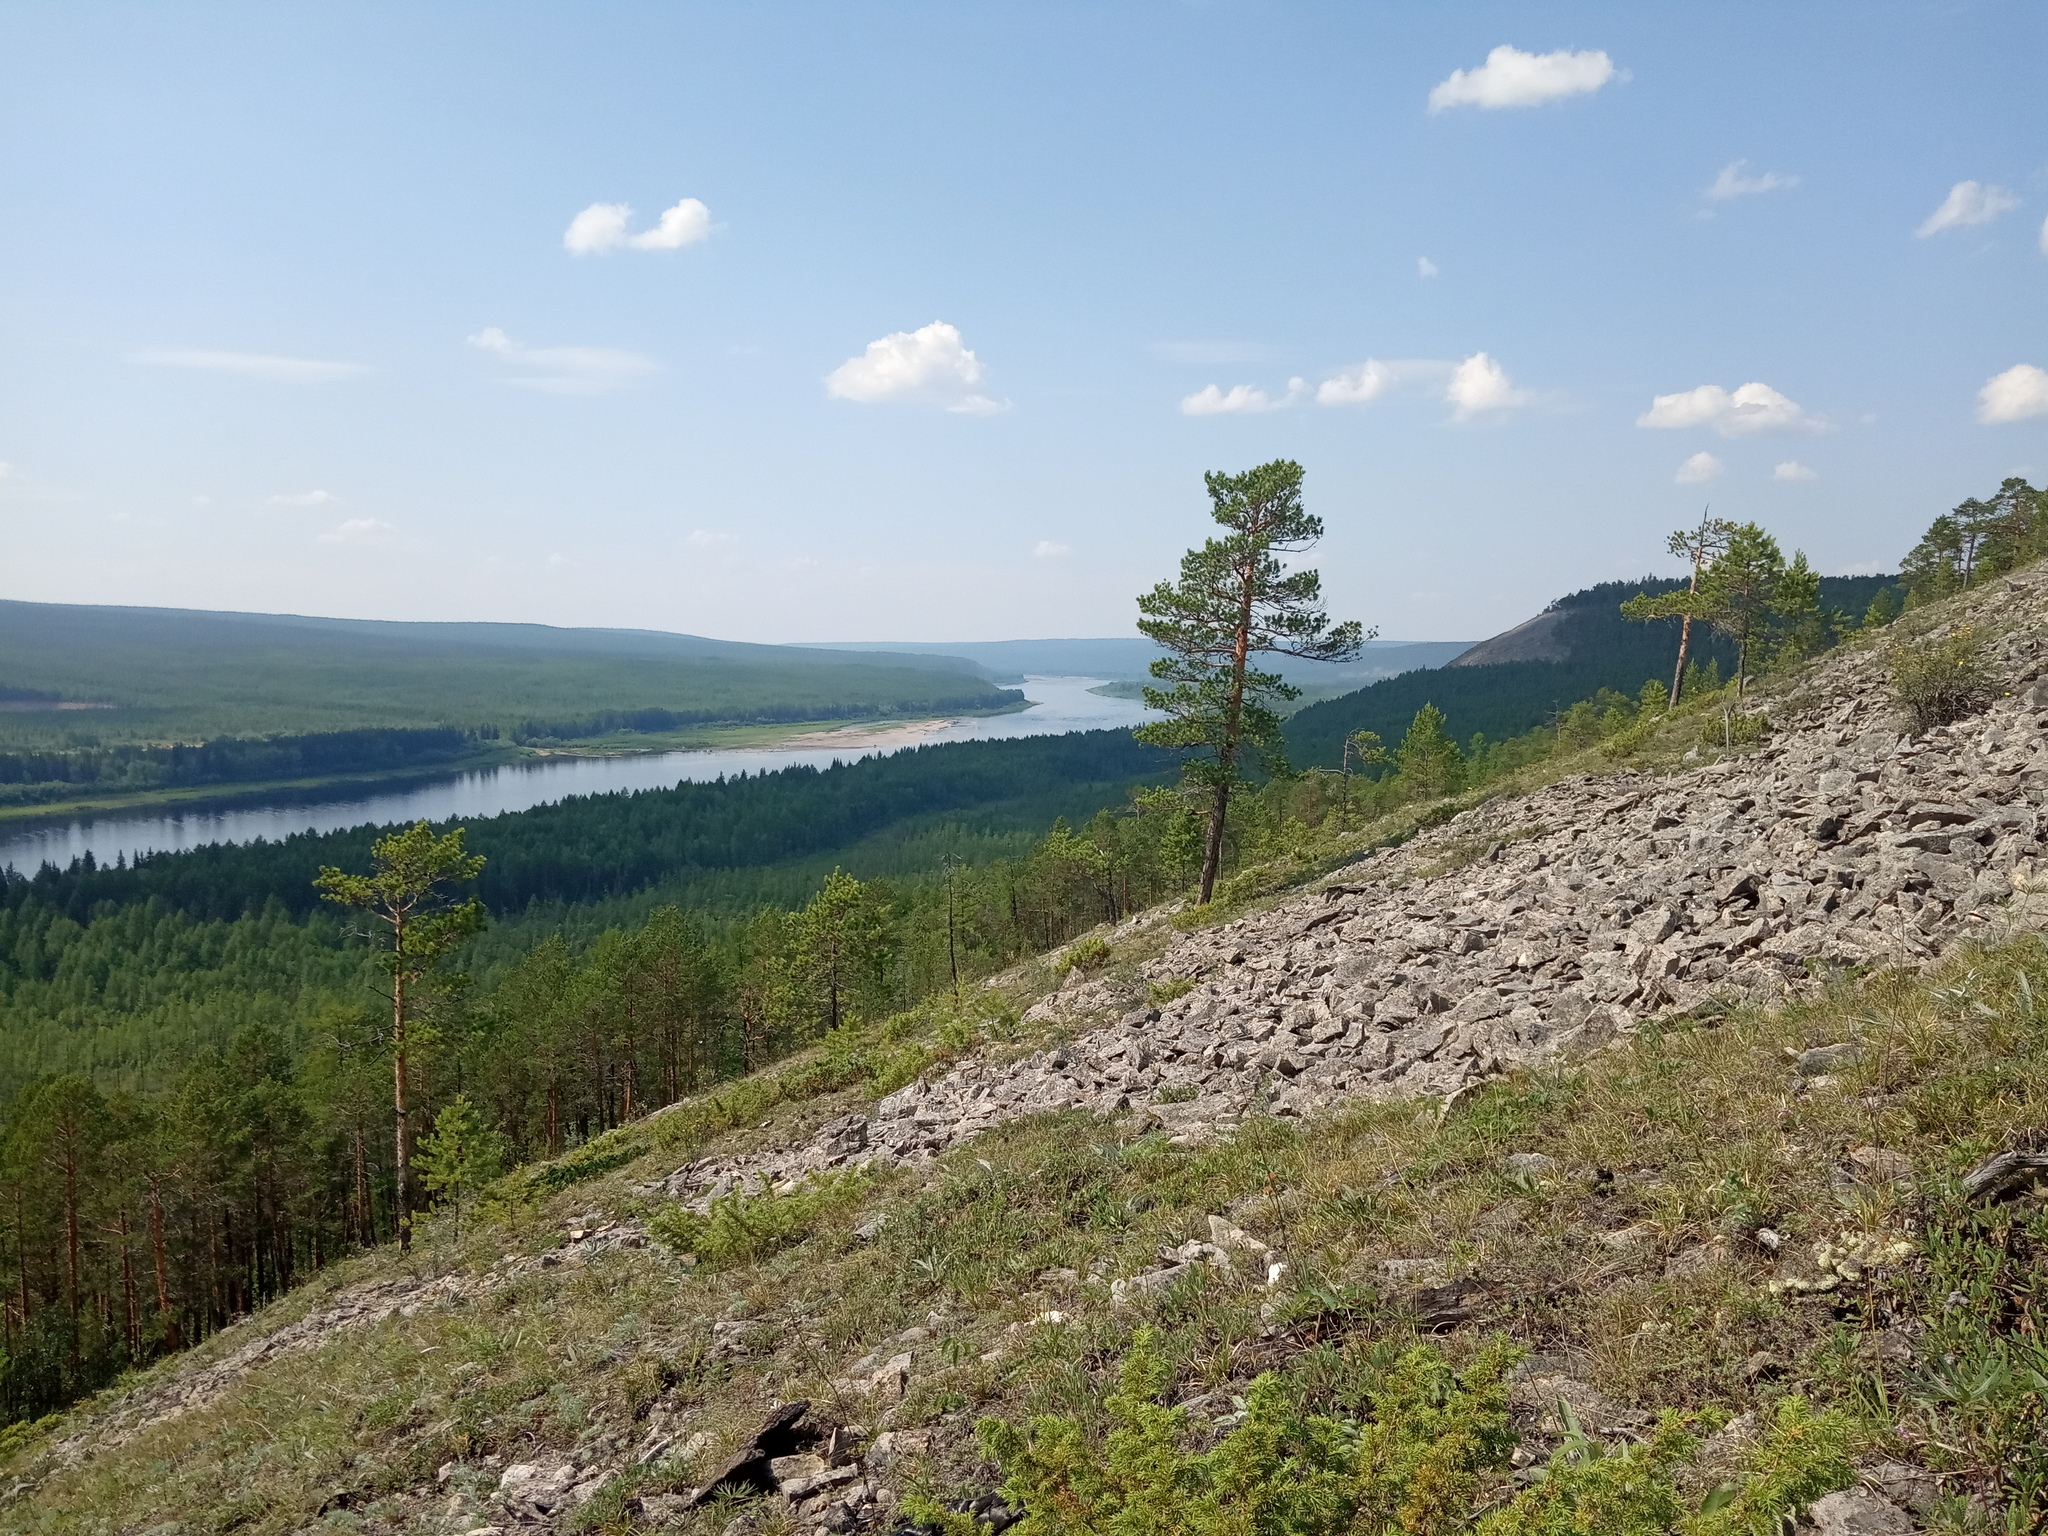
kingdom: Plantae
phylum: Tracheophyta
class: Pinopsida
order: Pinales
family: Pinaceae
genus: Pinus
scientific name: Pinus sylvestris
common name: Scots pine
